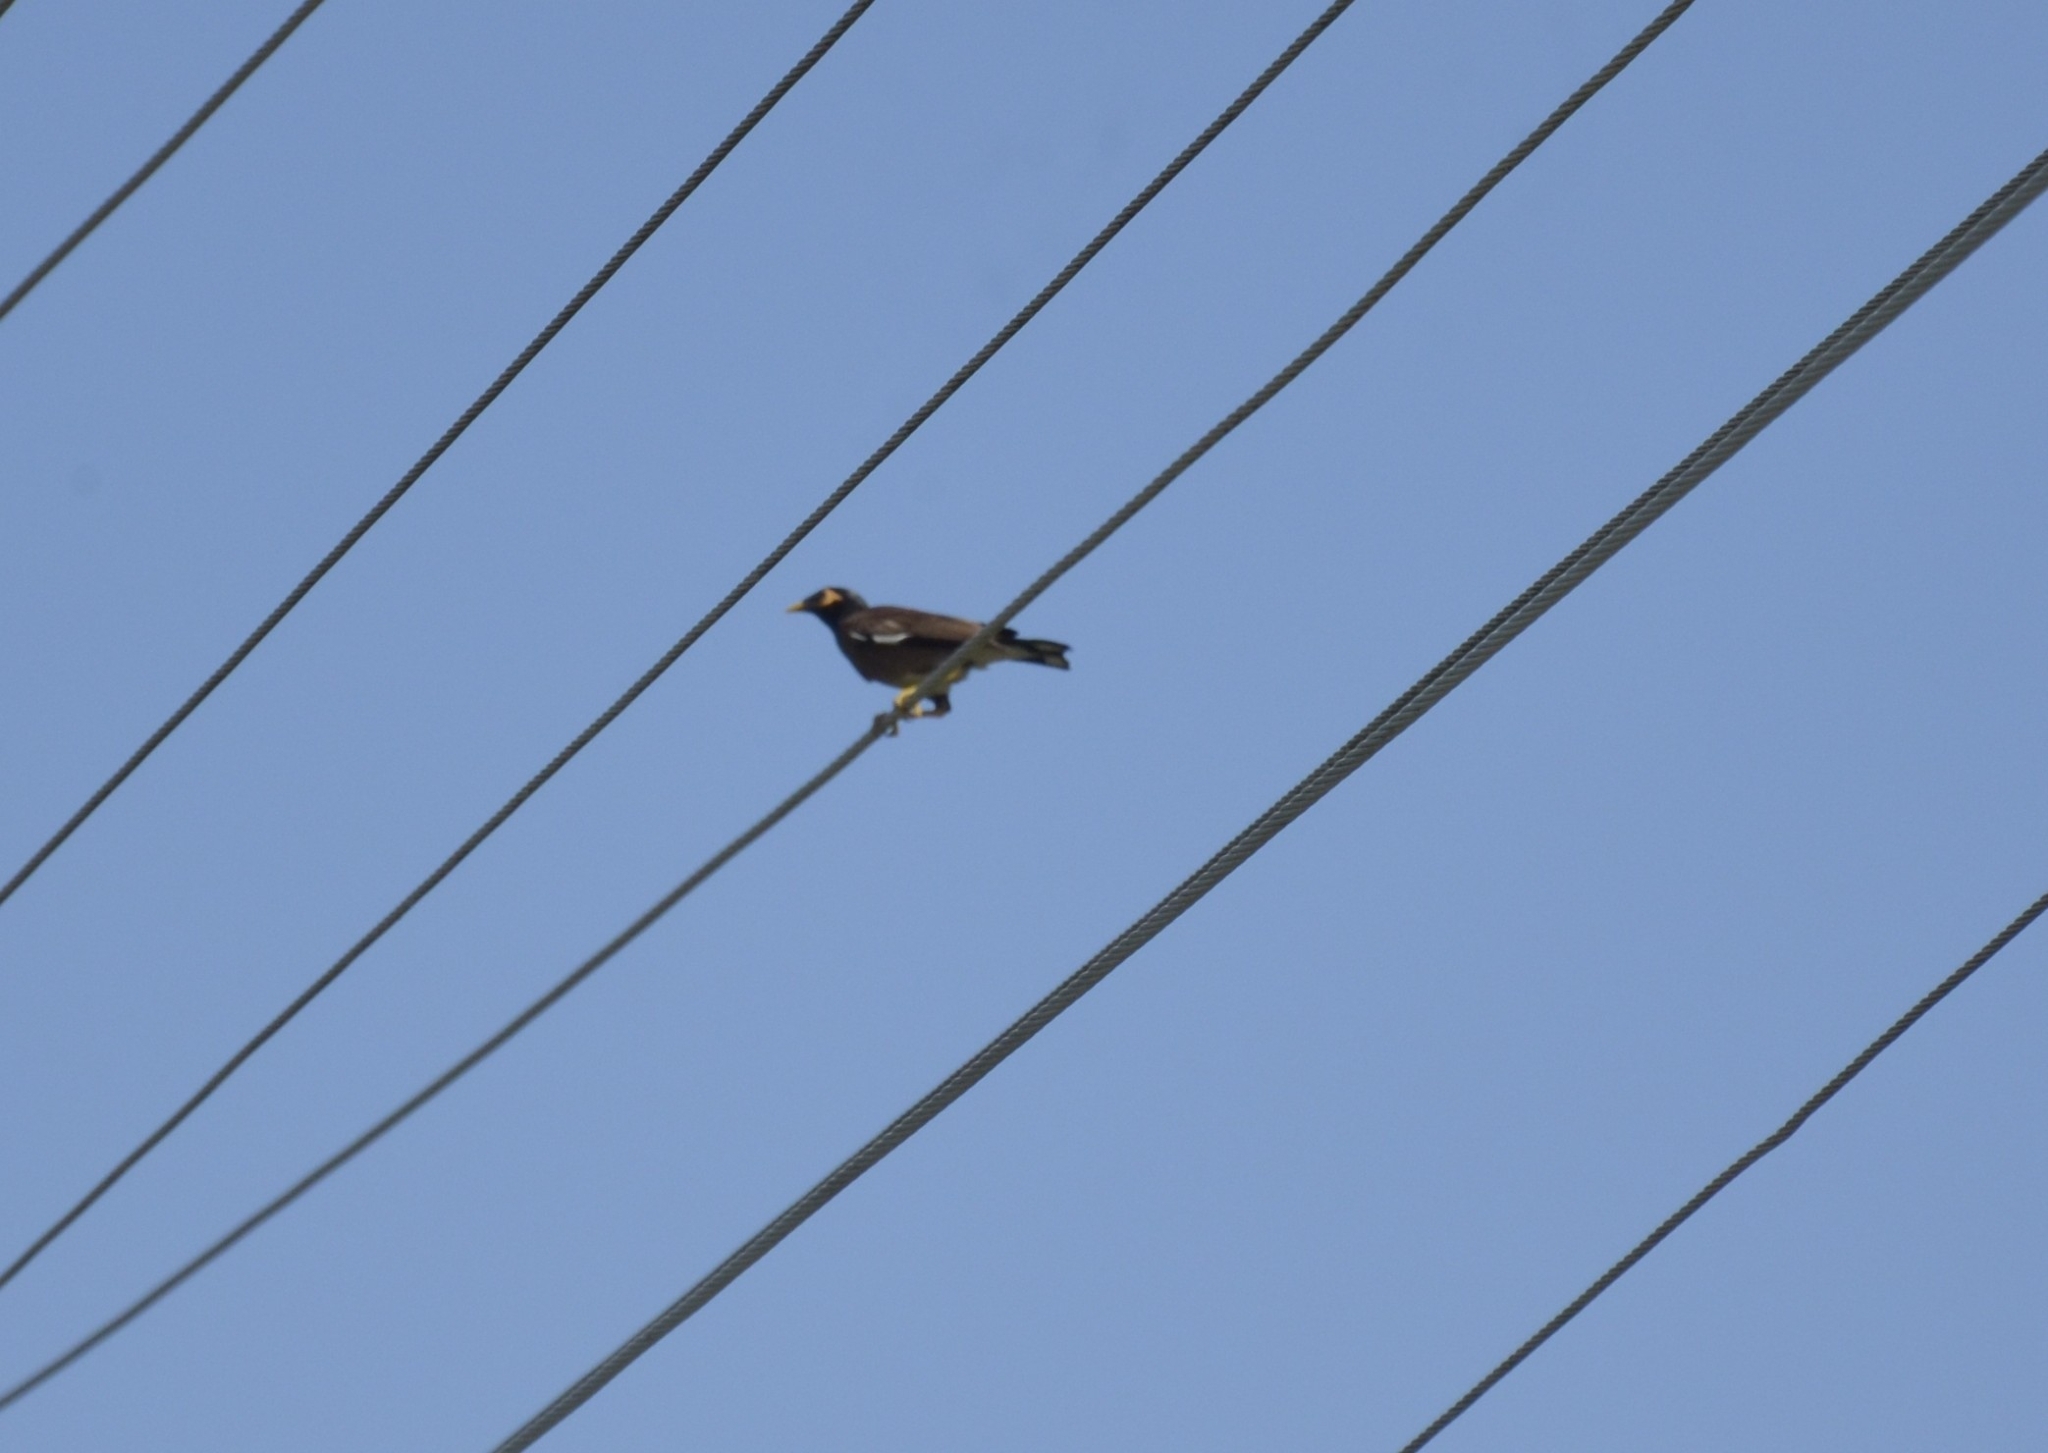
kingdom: Animalia
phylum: Chordata
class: Aves
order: Passeriformes
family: Sturnidae
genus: Acridotheres
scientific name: Acridotheres tristis
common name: Common myna
